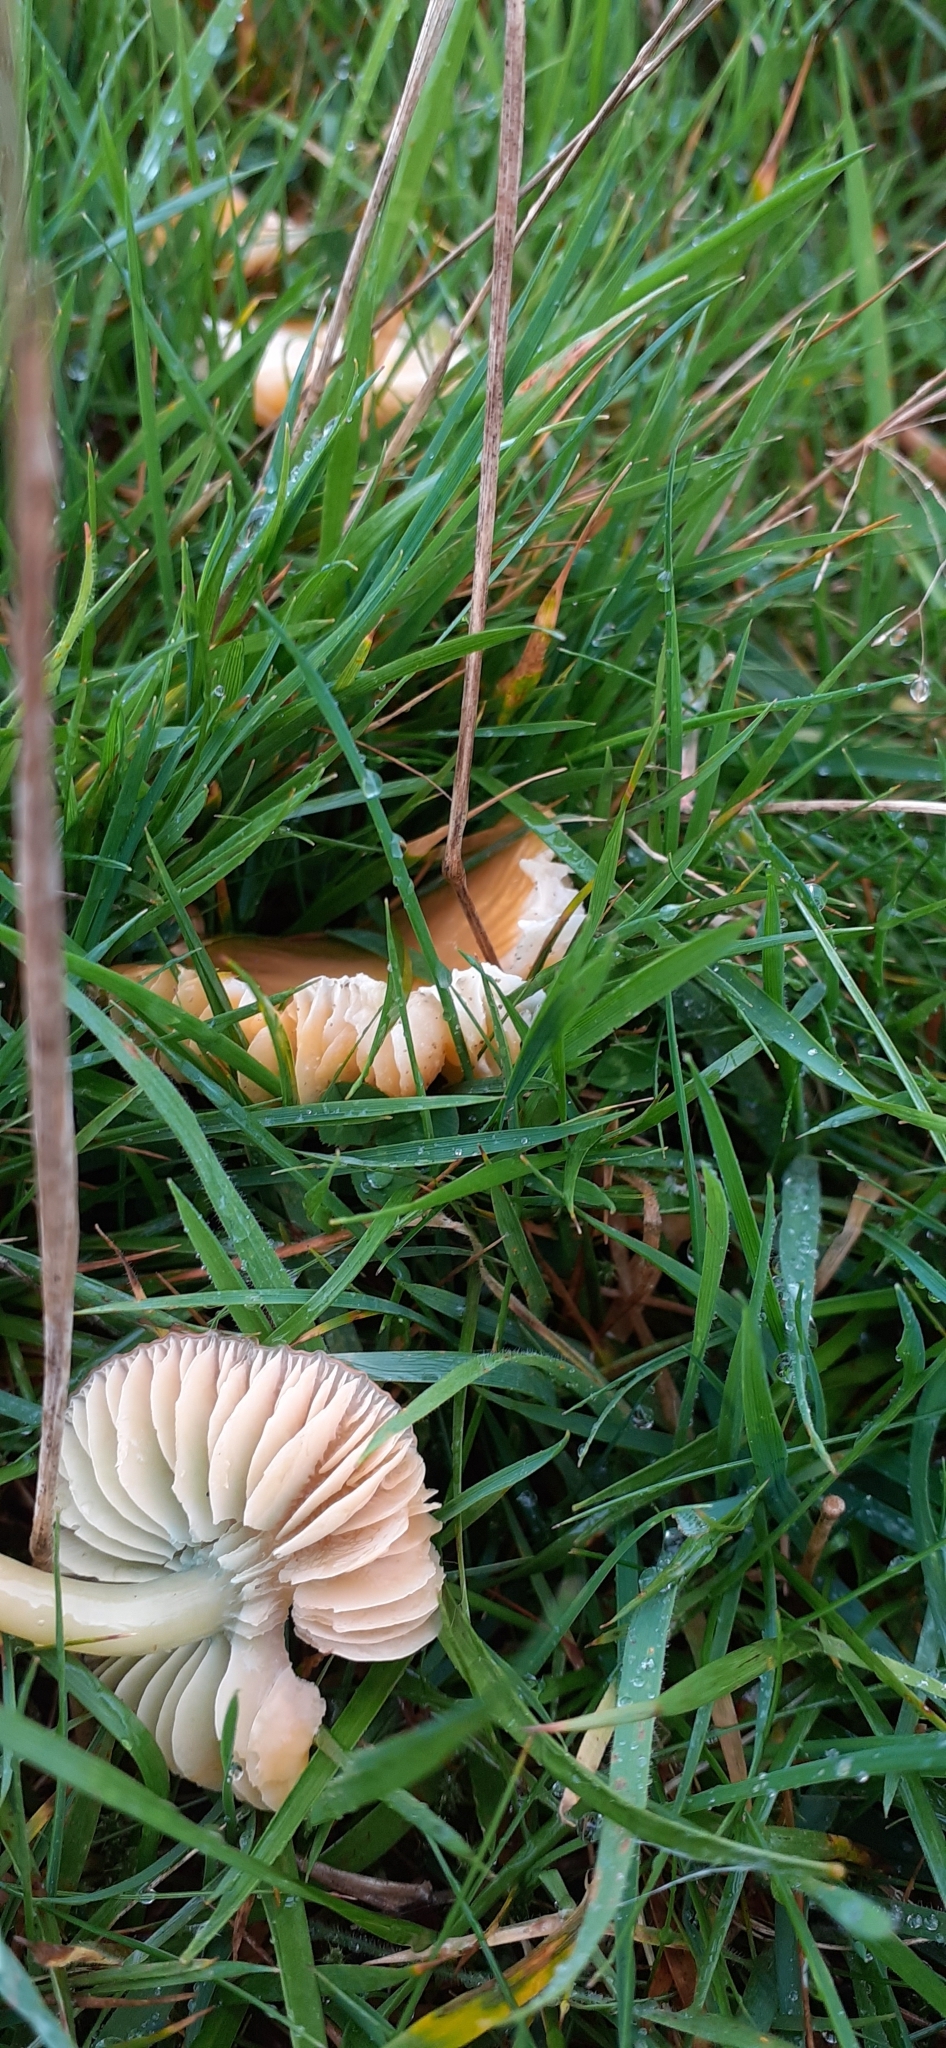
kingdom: Fungi
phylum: Basidiomycota
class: Agaricomycetes
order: Agaricales
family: Hygrophoraceae
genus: Gliophorus
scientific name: Gliophorus psittacinus
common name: Parrot wax-cap
